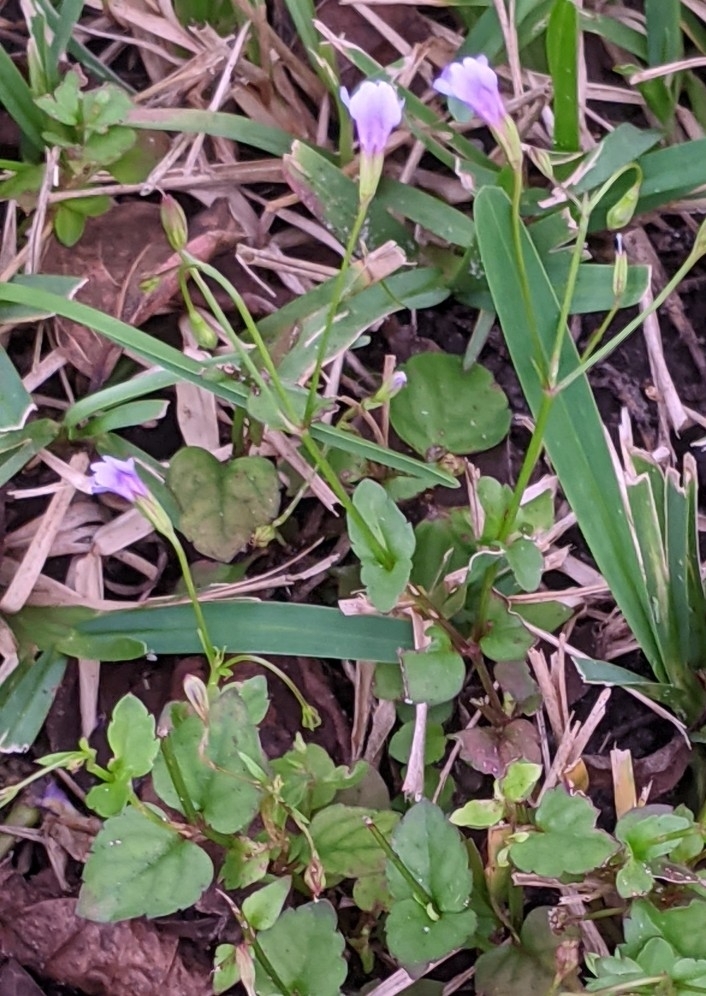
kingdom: Plantae
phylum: Tracheophyta
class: Magnoliopsida
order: Lamiales
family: Linderniaceae
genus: Torenia
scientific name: Torenia crustacea
